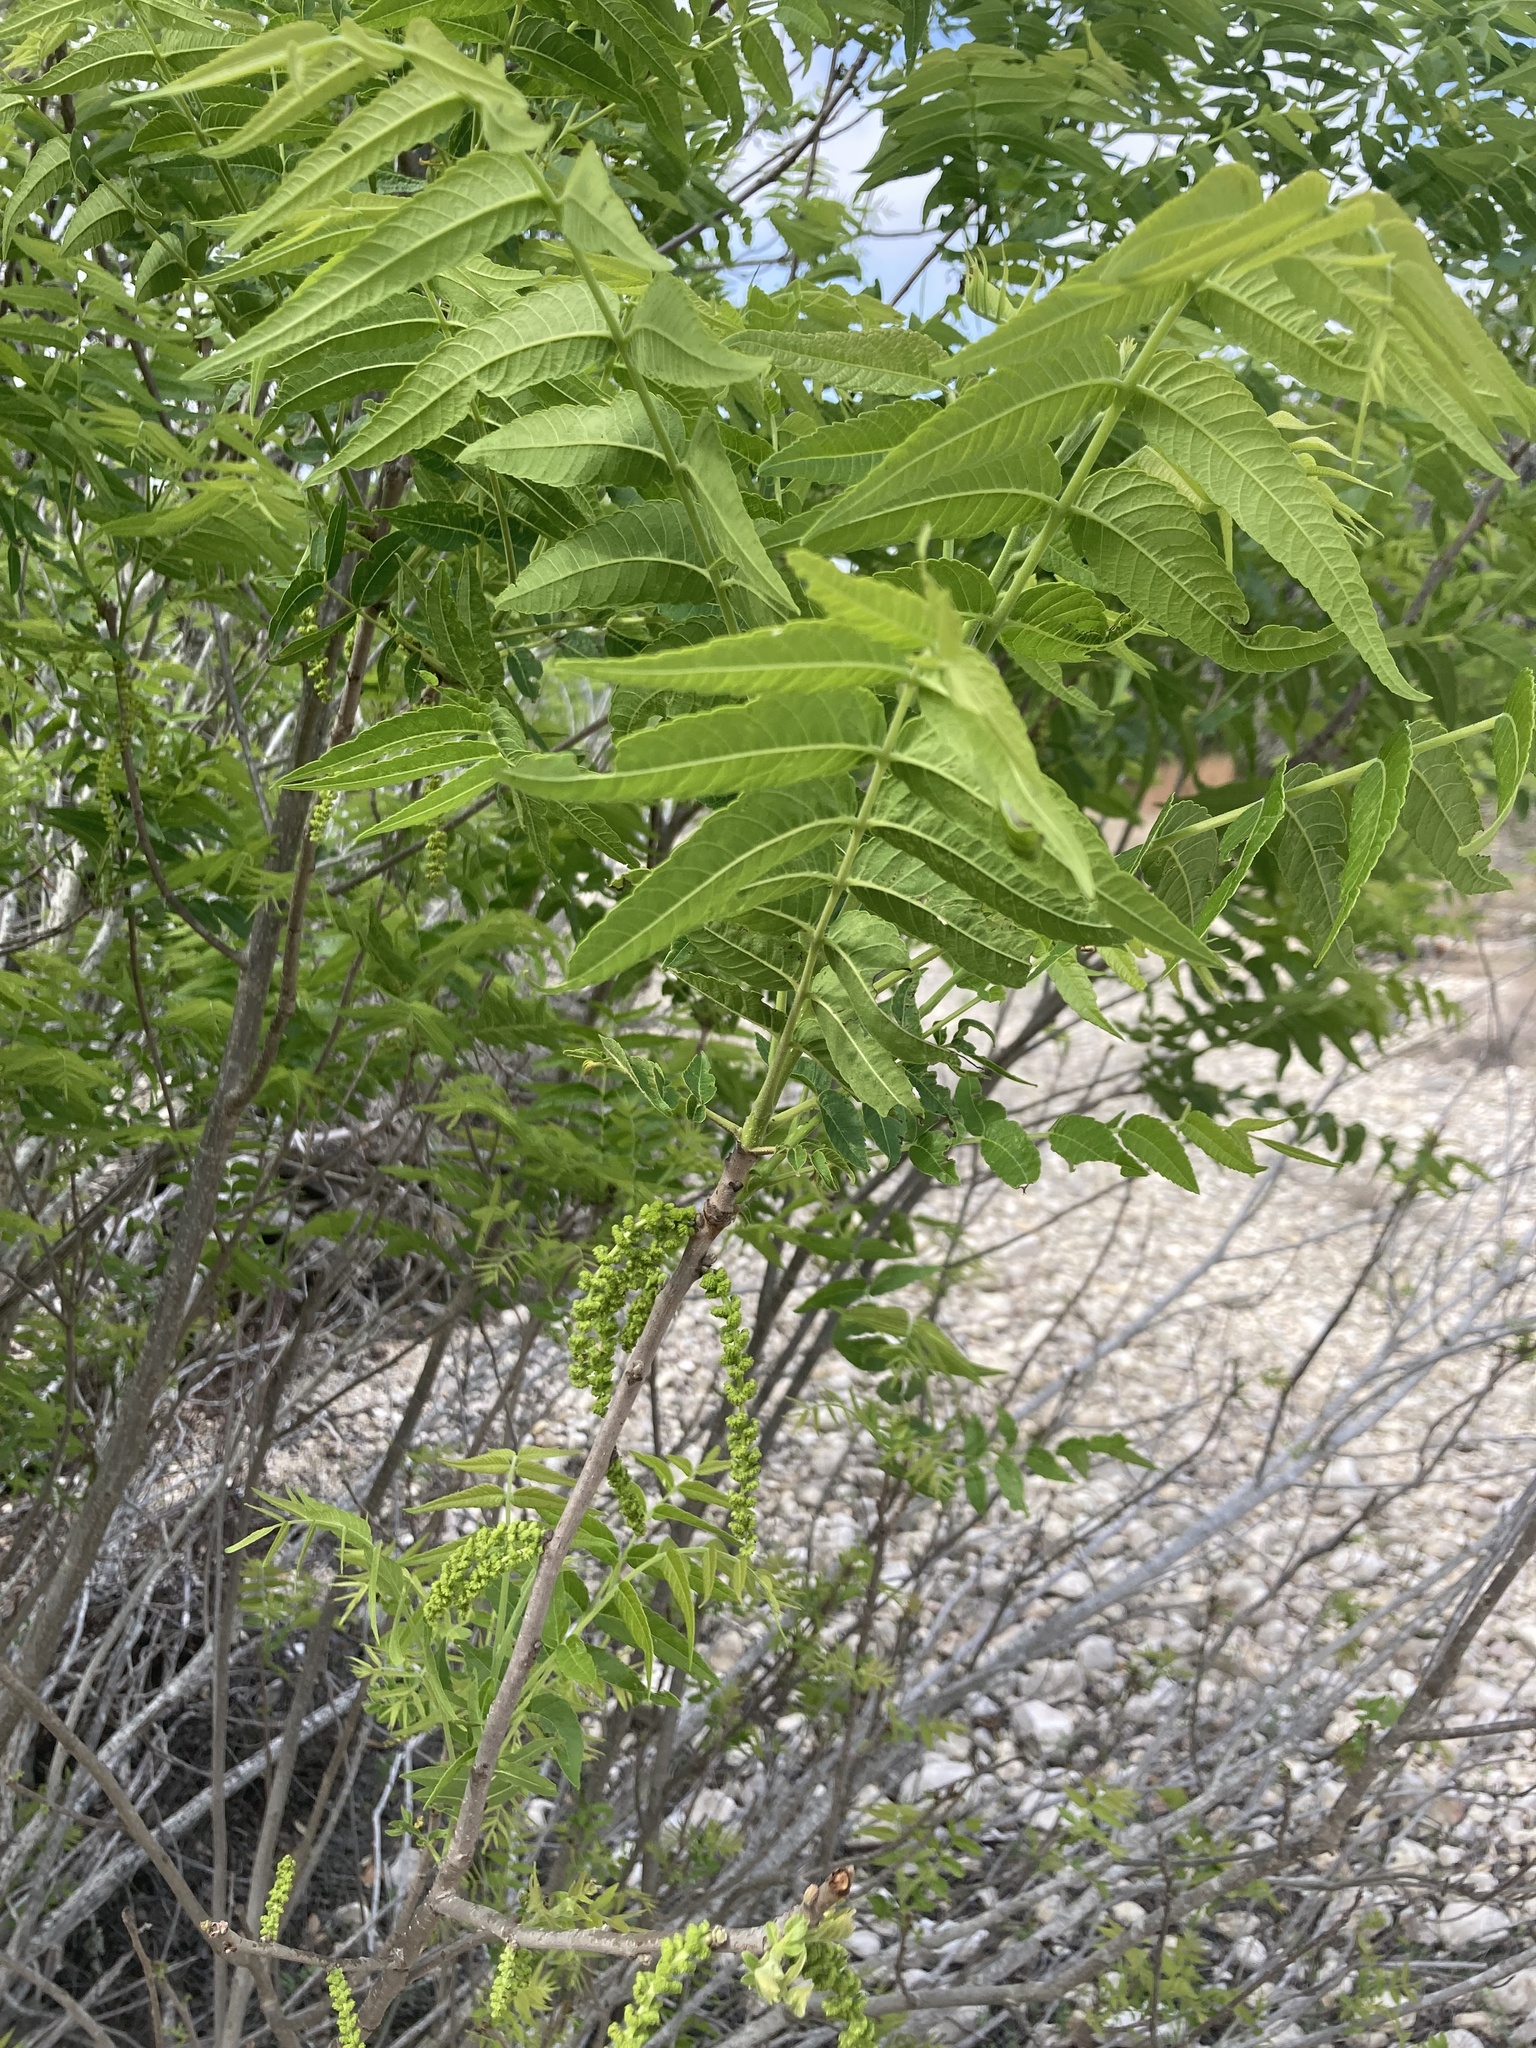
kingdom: Plantae
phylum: Tracheophyta
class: Magnoliopsida
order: Fagales
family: Juglandaceae
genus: Juglans
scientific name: Juglans microcarpa
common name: Texas walnut
